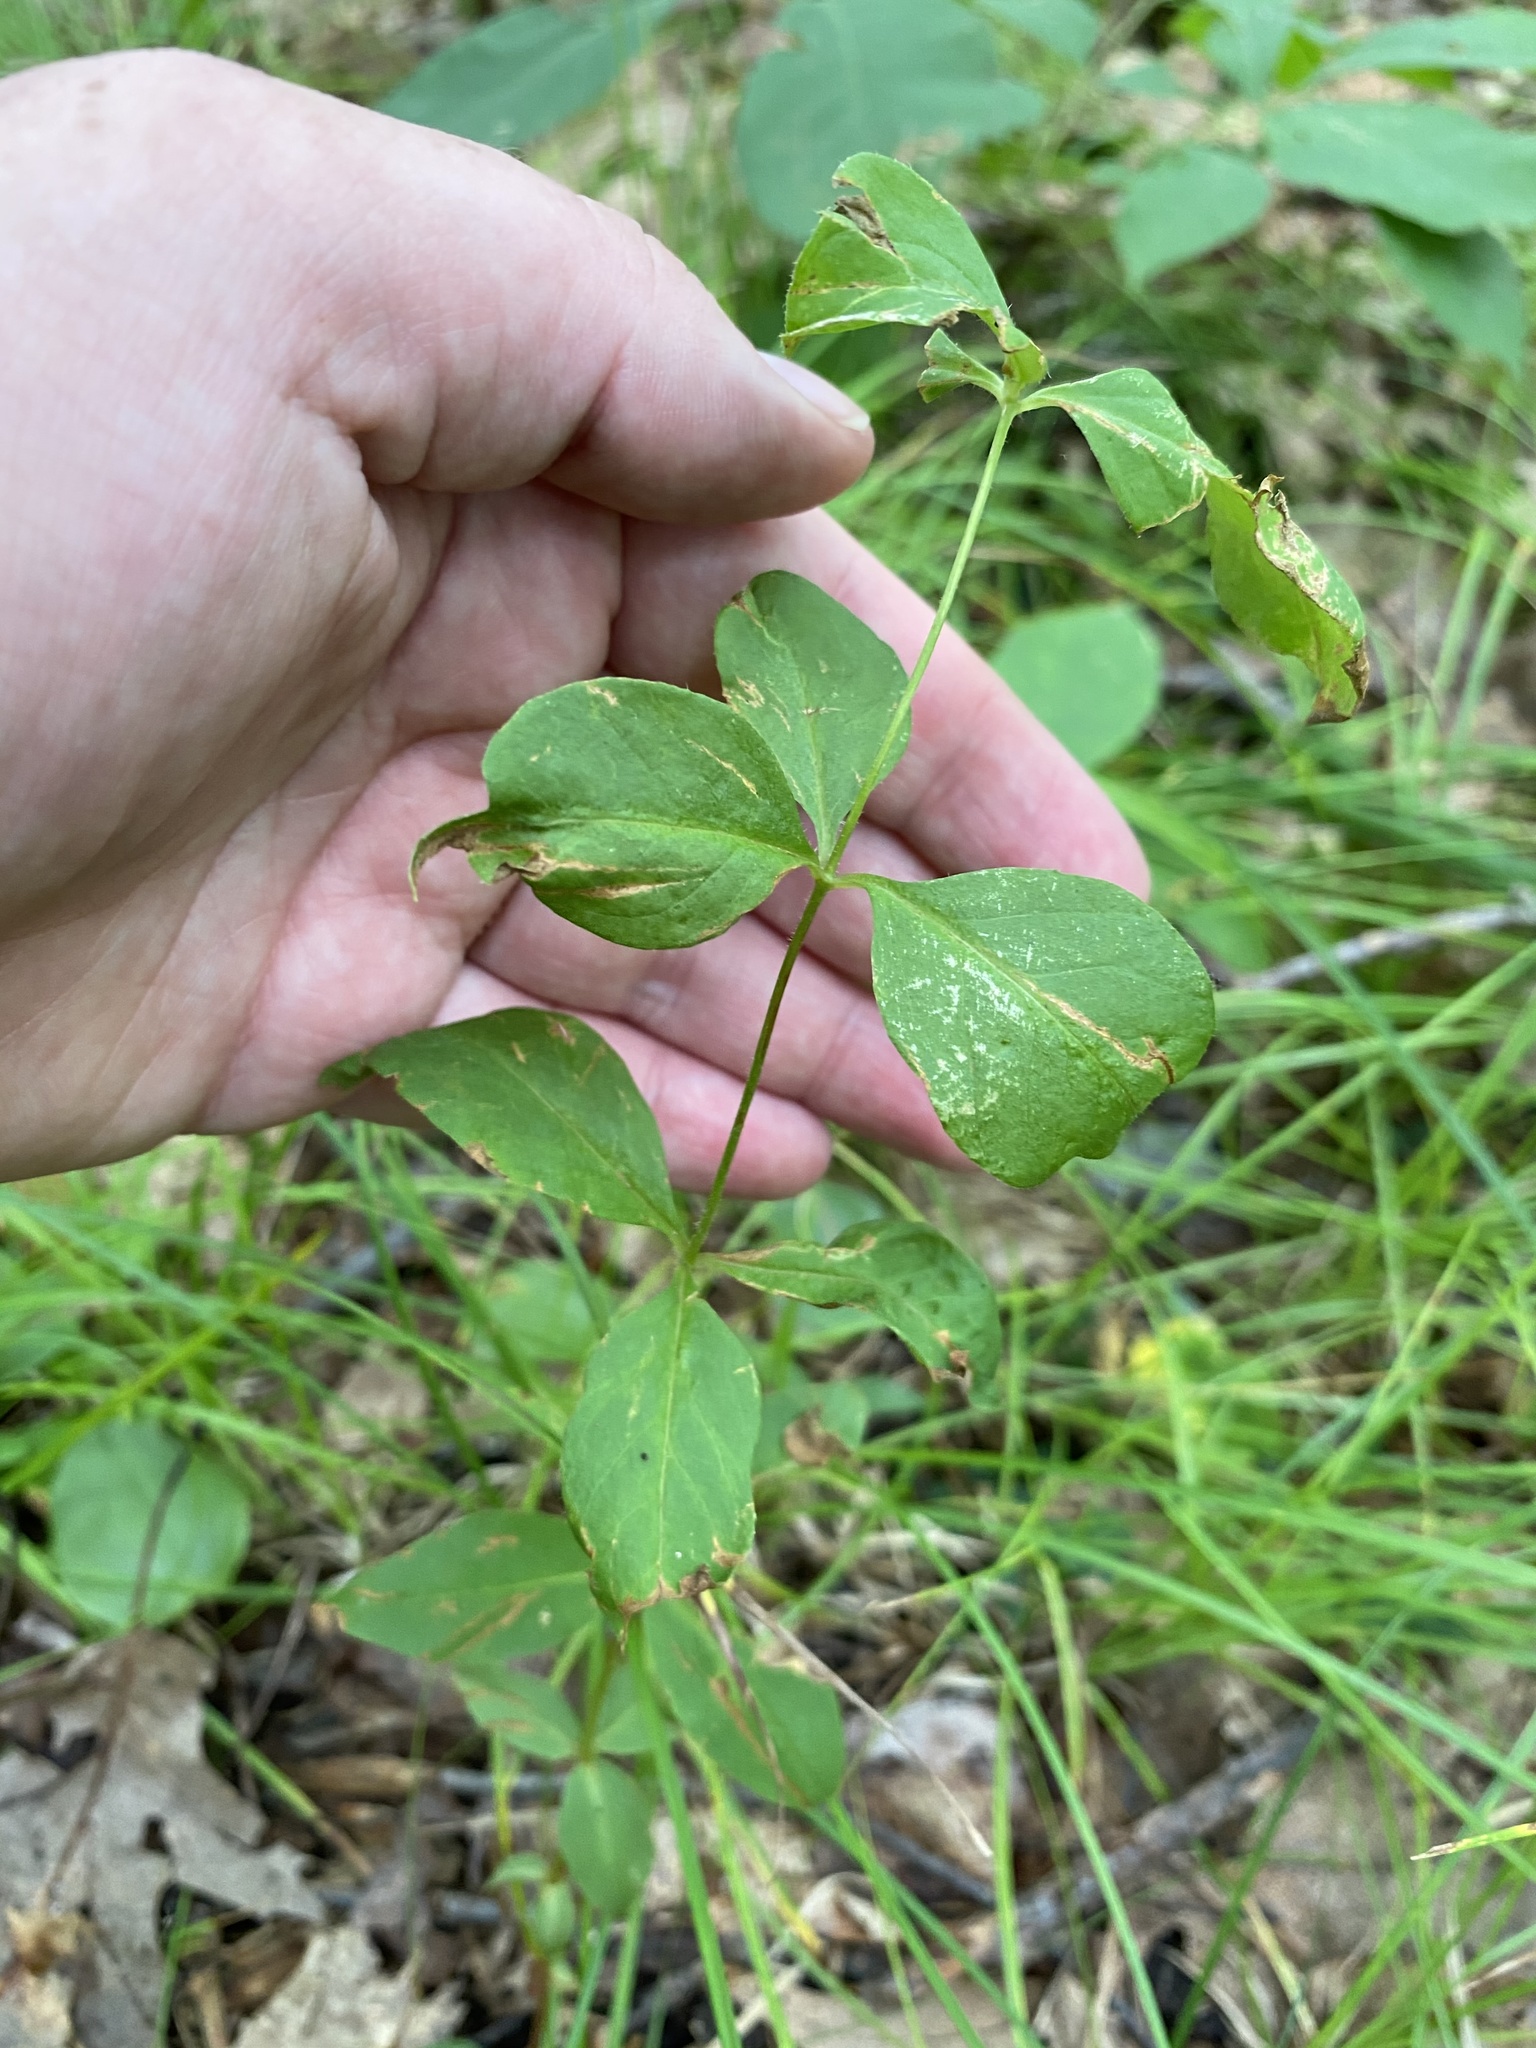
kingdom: Plantae
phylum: Tracheophyta
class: Magnoliopsida
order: Ericales
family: Primulaceae
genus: Lysimachia
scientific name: Lysimachia quadrifolia
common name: Whorled loosestrife
